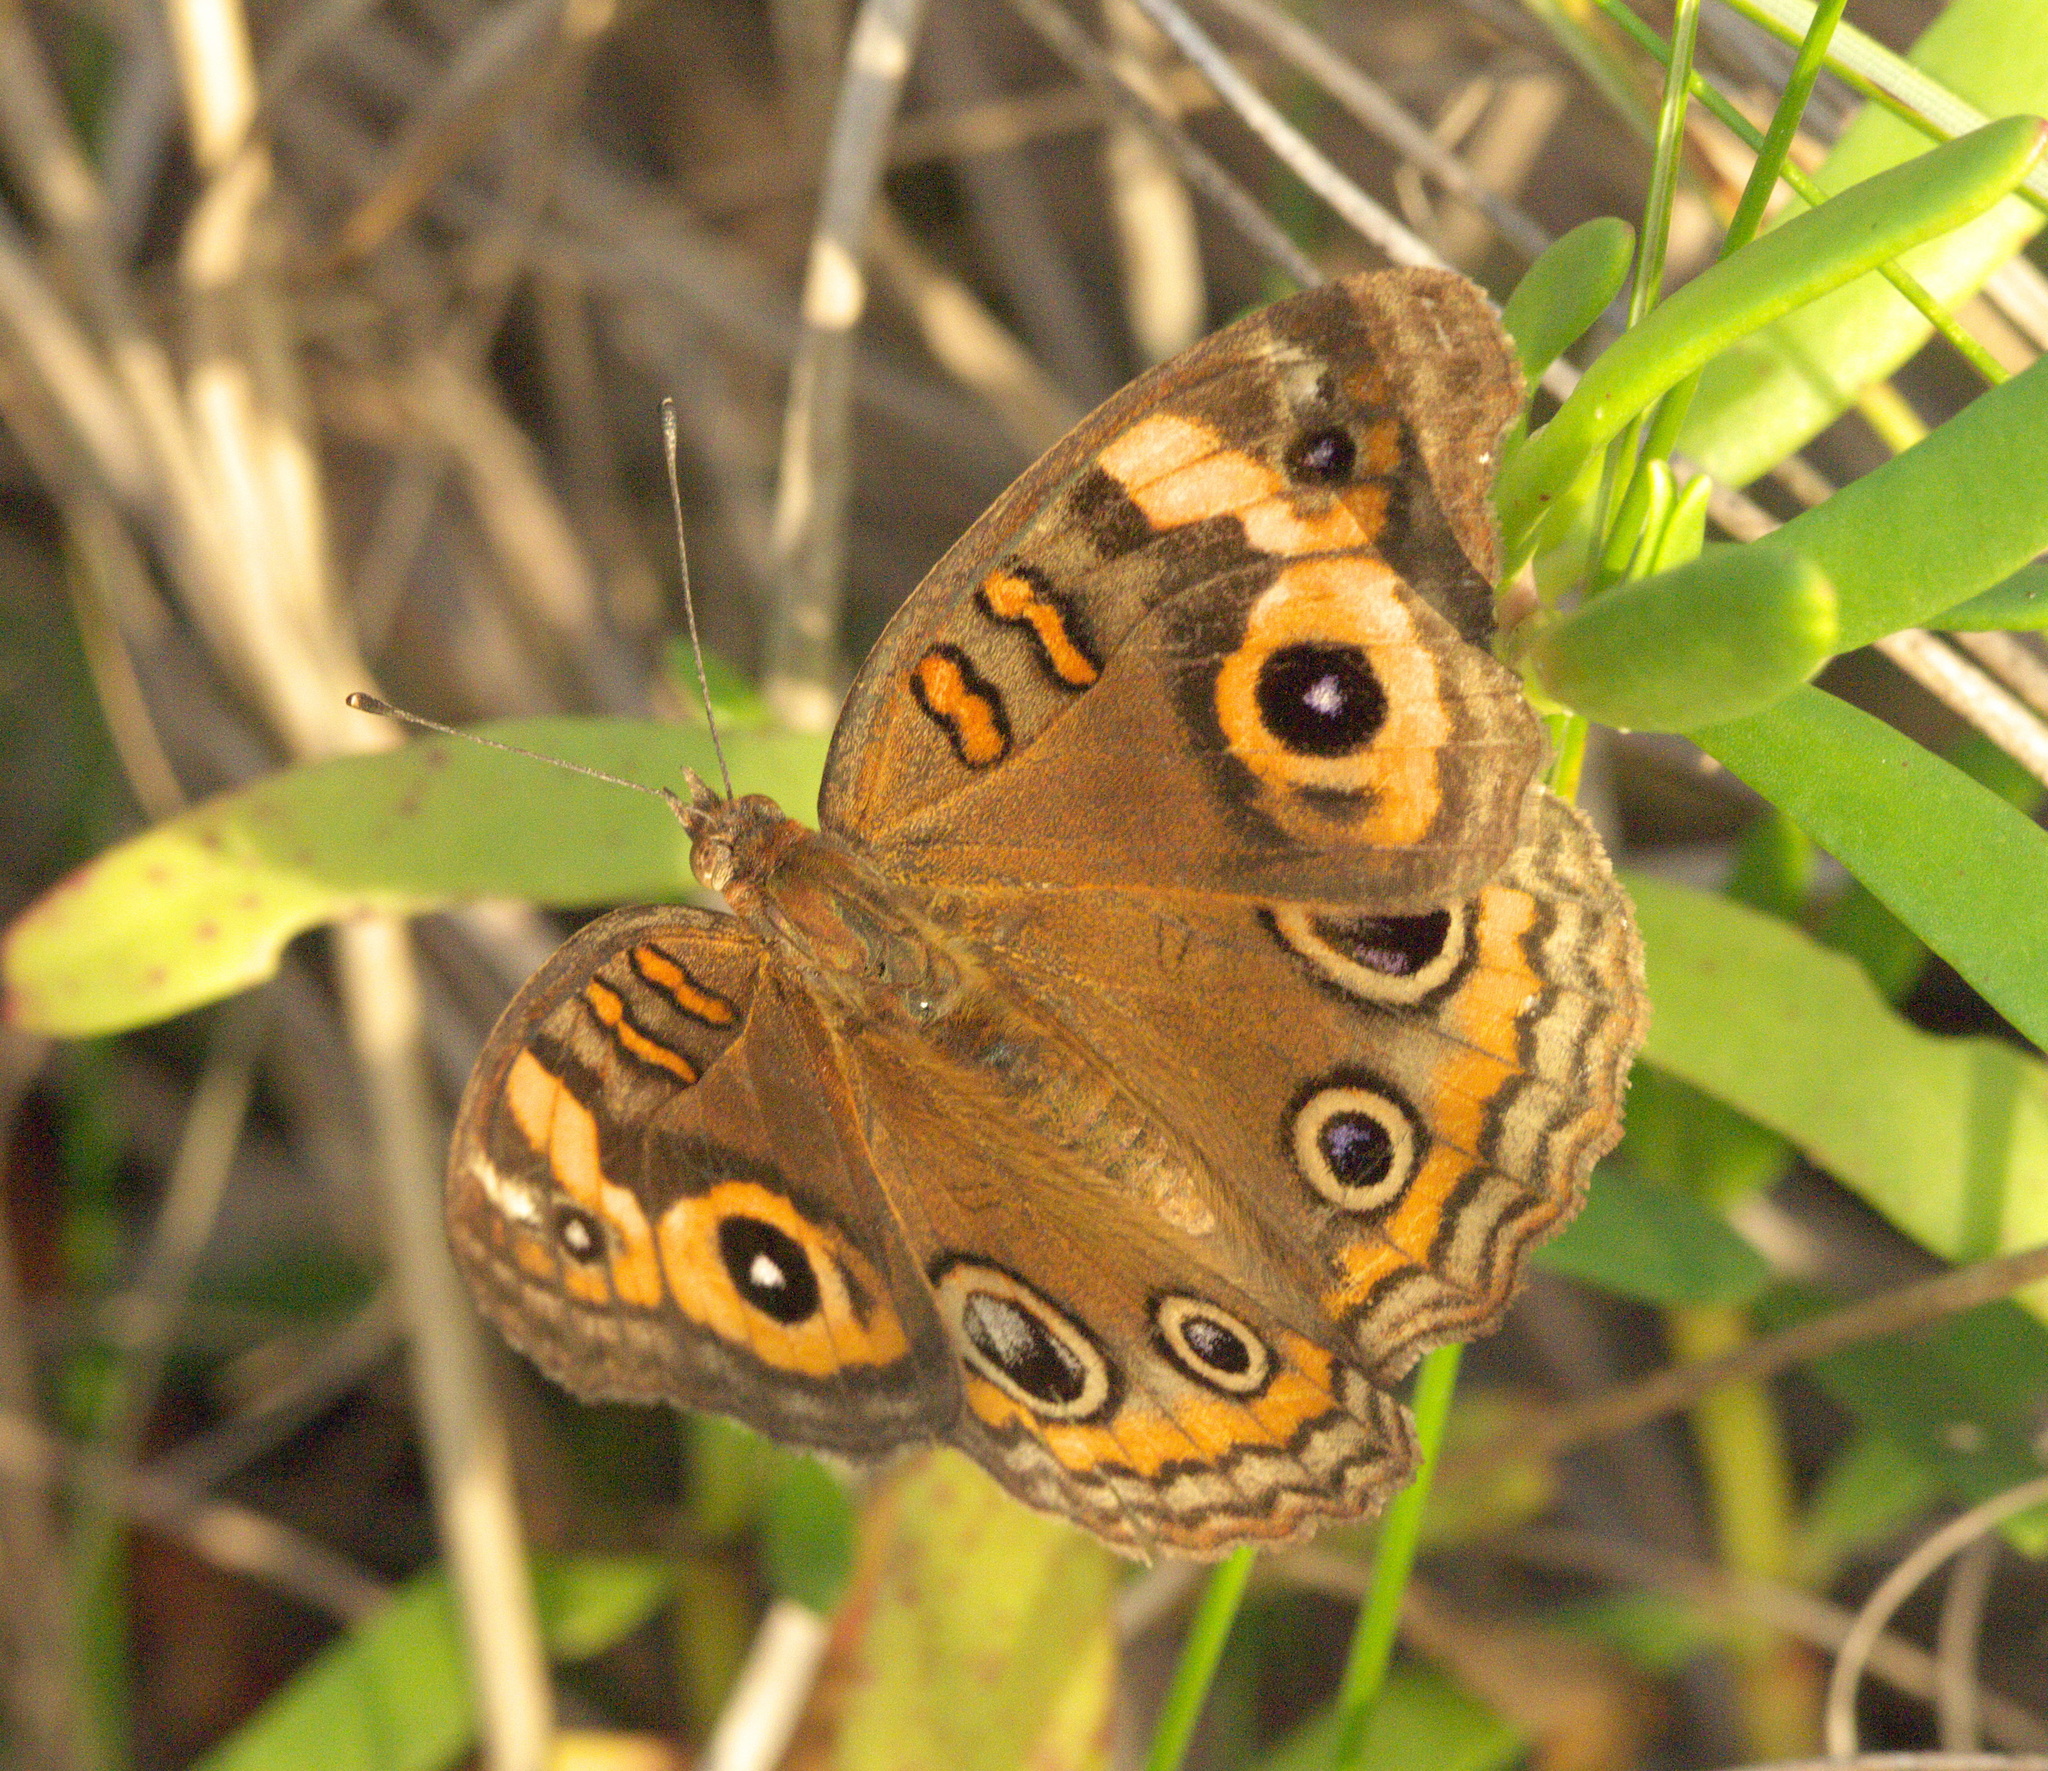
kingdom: Animalia
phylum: Arthropoda
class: Insecta
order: Lepidoptera
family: Nymphalidae
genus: Junonia
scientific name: Junonia neildi
